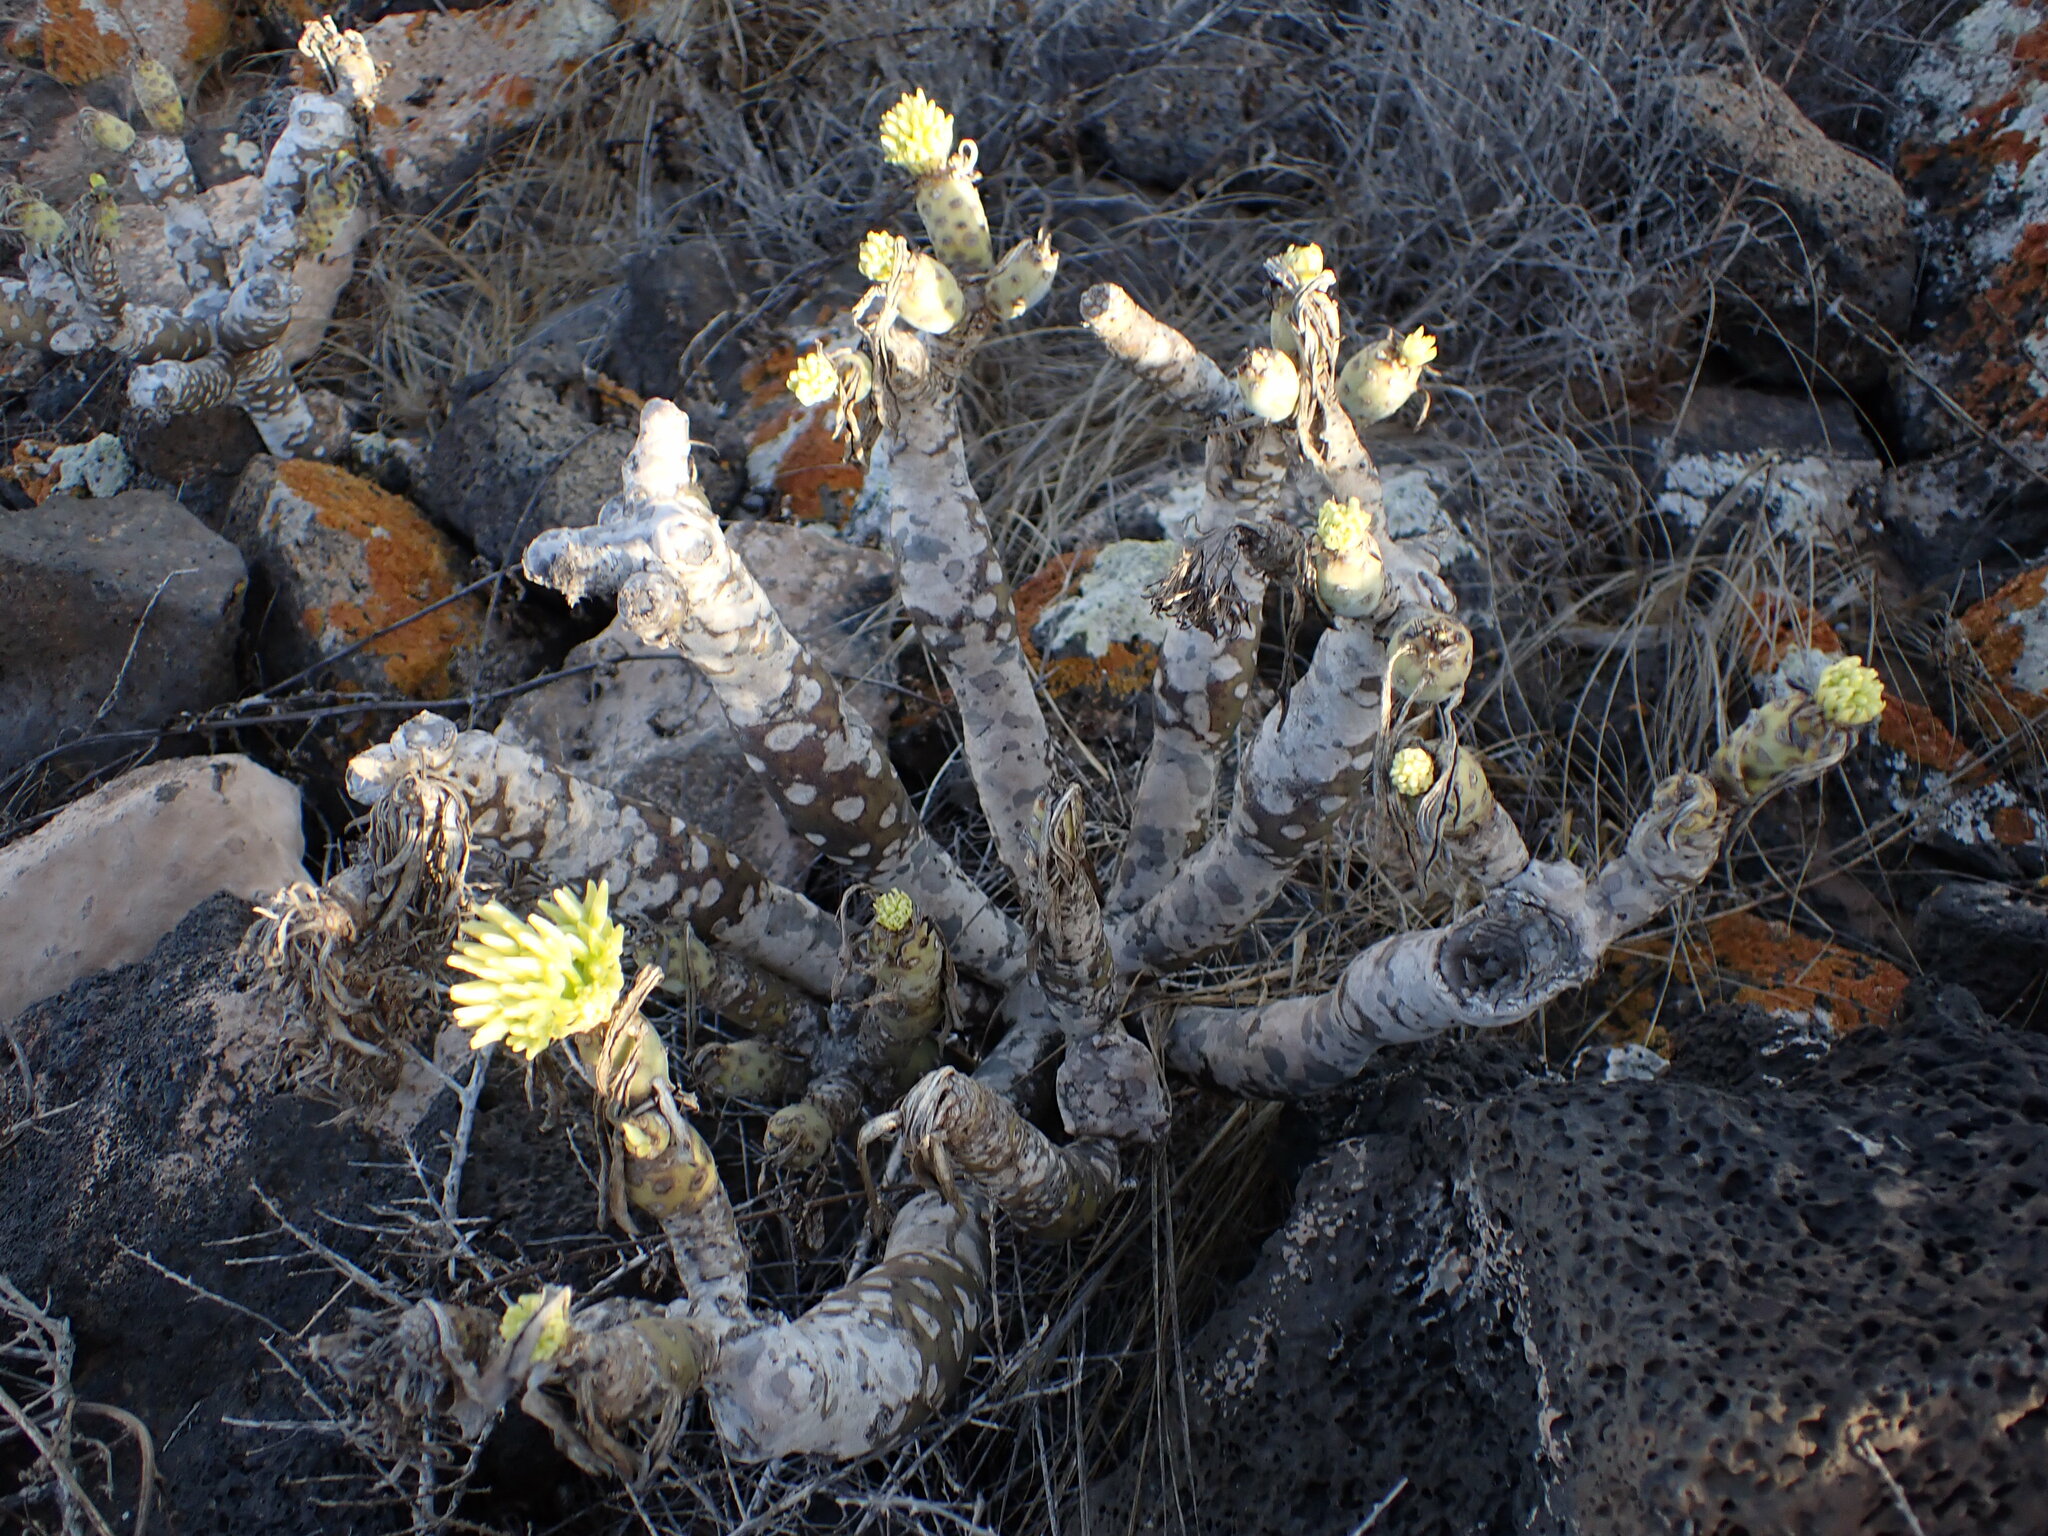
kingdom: Plantae
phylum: Tracheophyta
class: Magnoliopsida
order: Asterales
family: Asteraceae
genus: Kleinia
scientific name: Kleinia neriifolia
